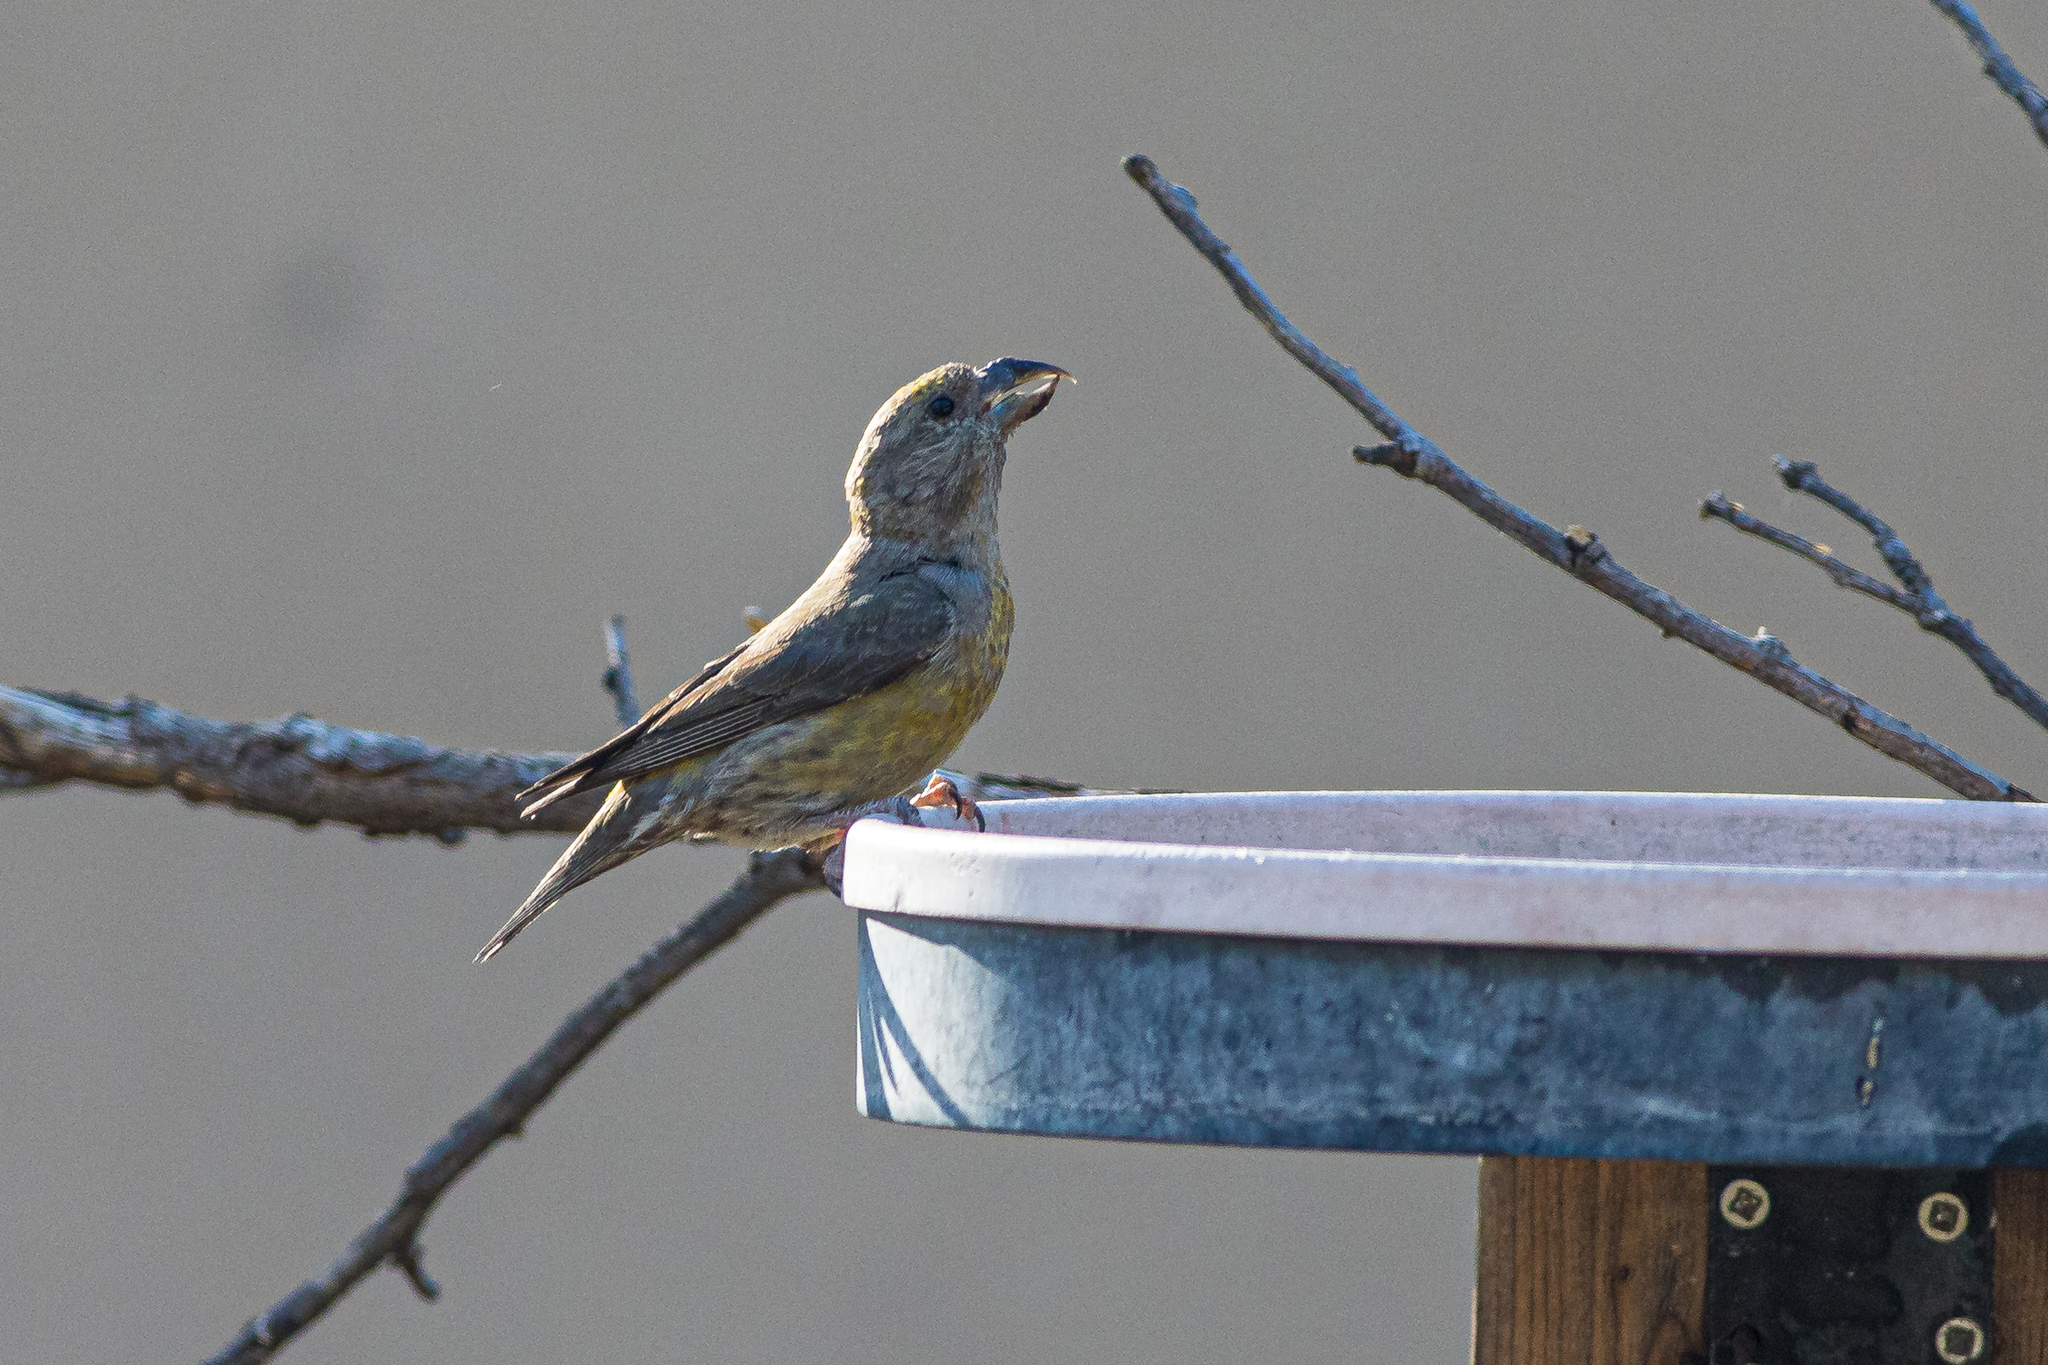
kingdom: Animalia
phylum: Chordata
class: Aves
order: Passeriformes
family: Fringillidae
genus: Loxia
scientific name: Loxia curvirostra
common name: Red crossbill
